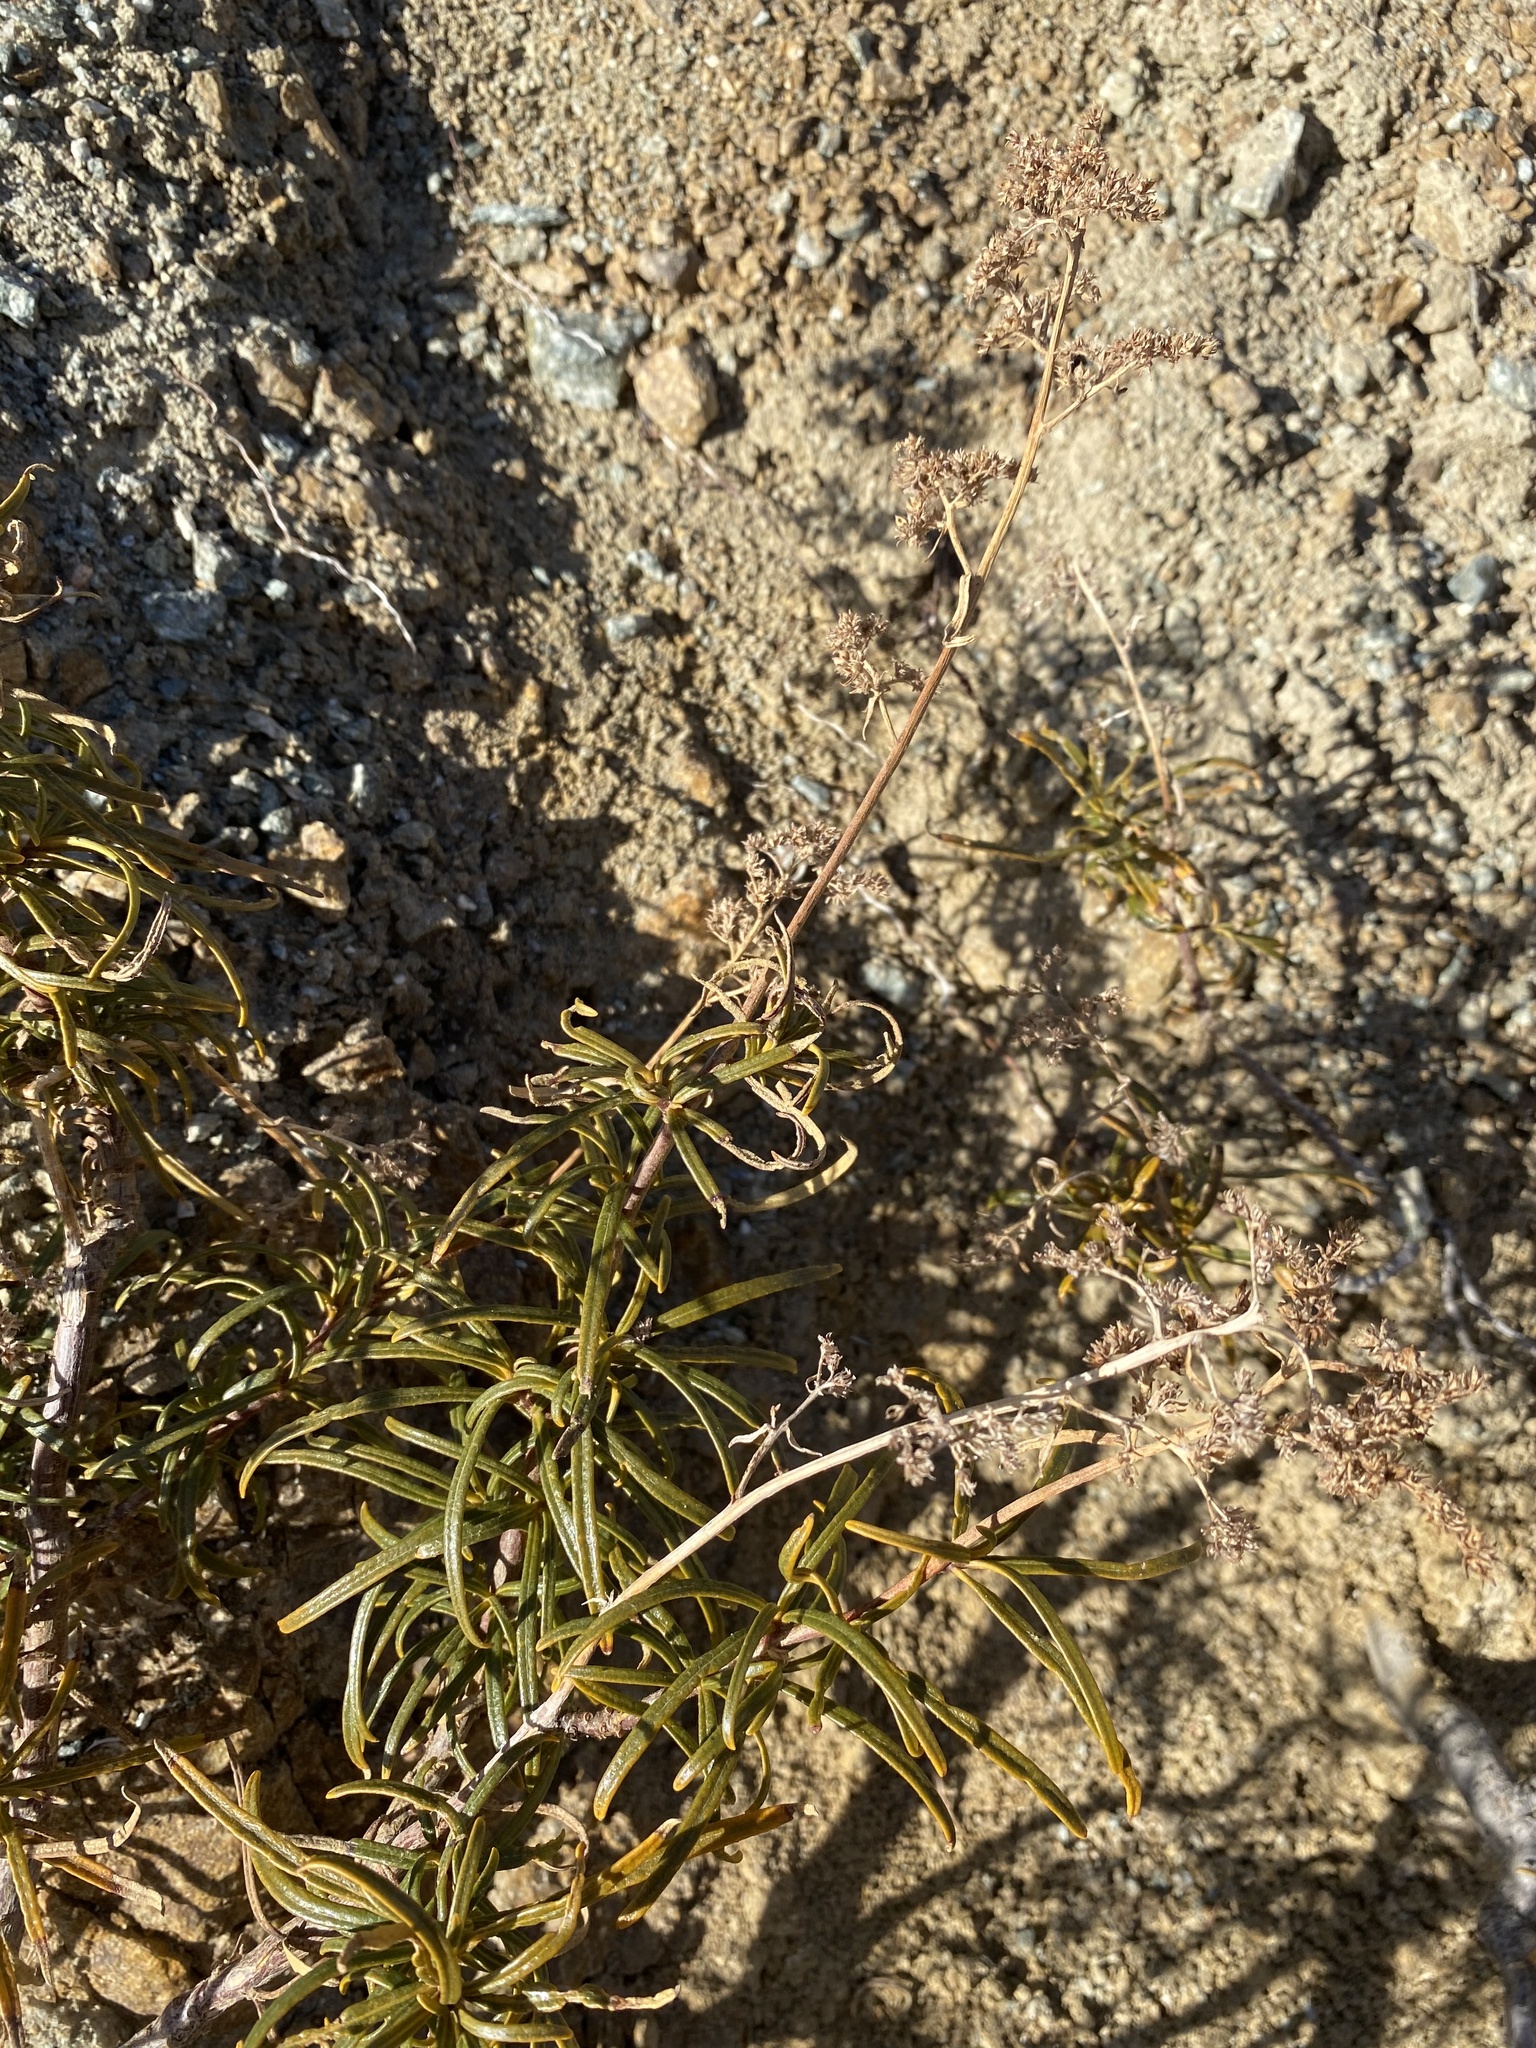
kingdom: Plantae
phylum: Tracheophyta
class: Magnoliopsida
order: Boraginales
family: Namaceae
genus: Eriodictyon
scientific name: Eriodictyon angustifolium
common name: Narrow-leaf yerba santa
